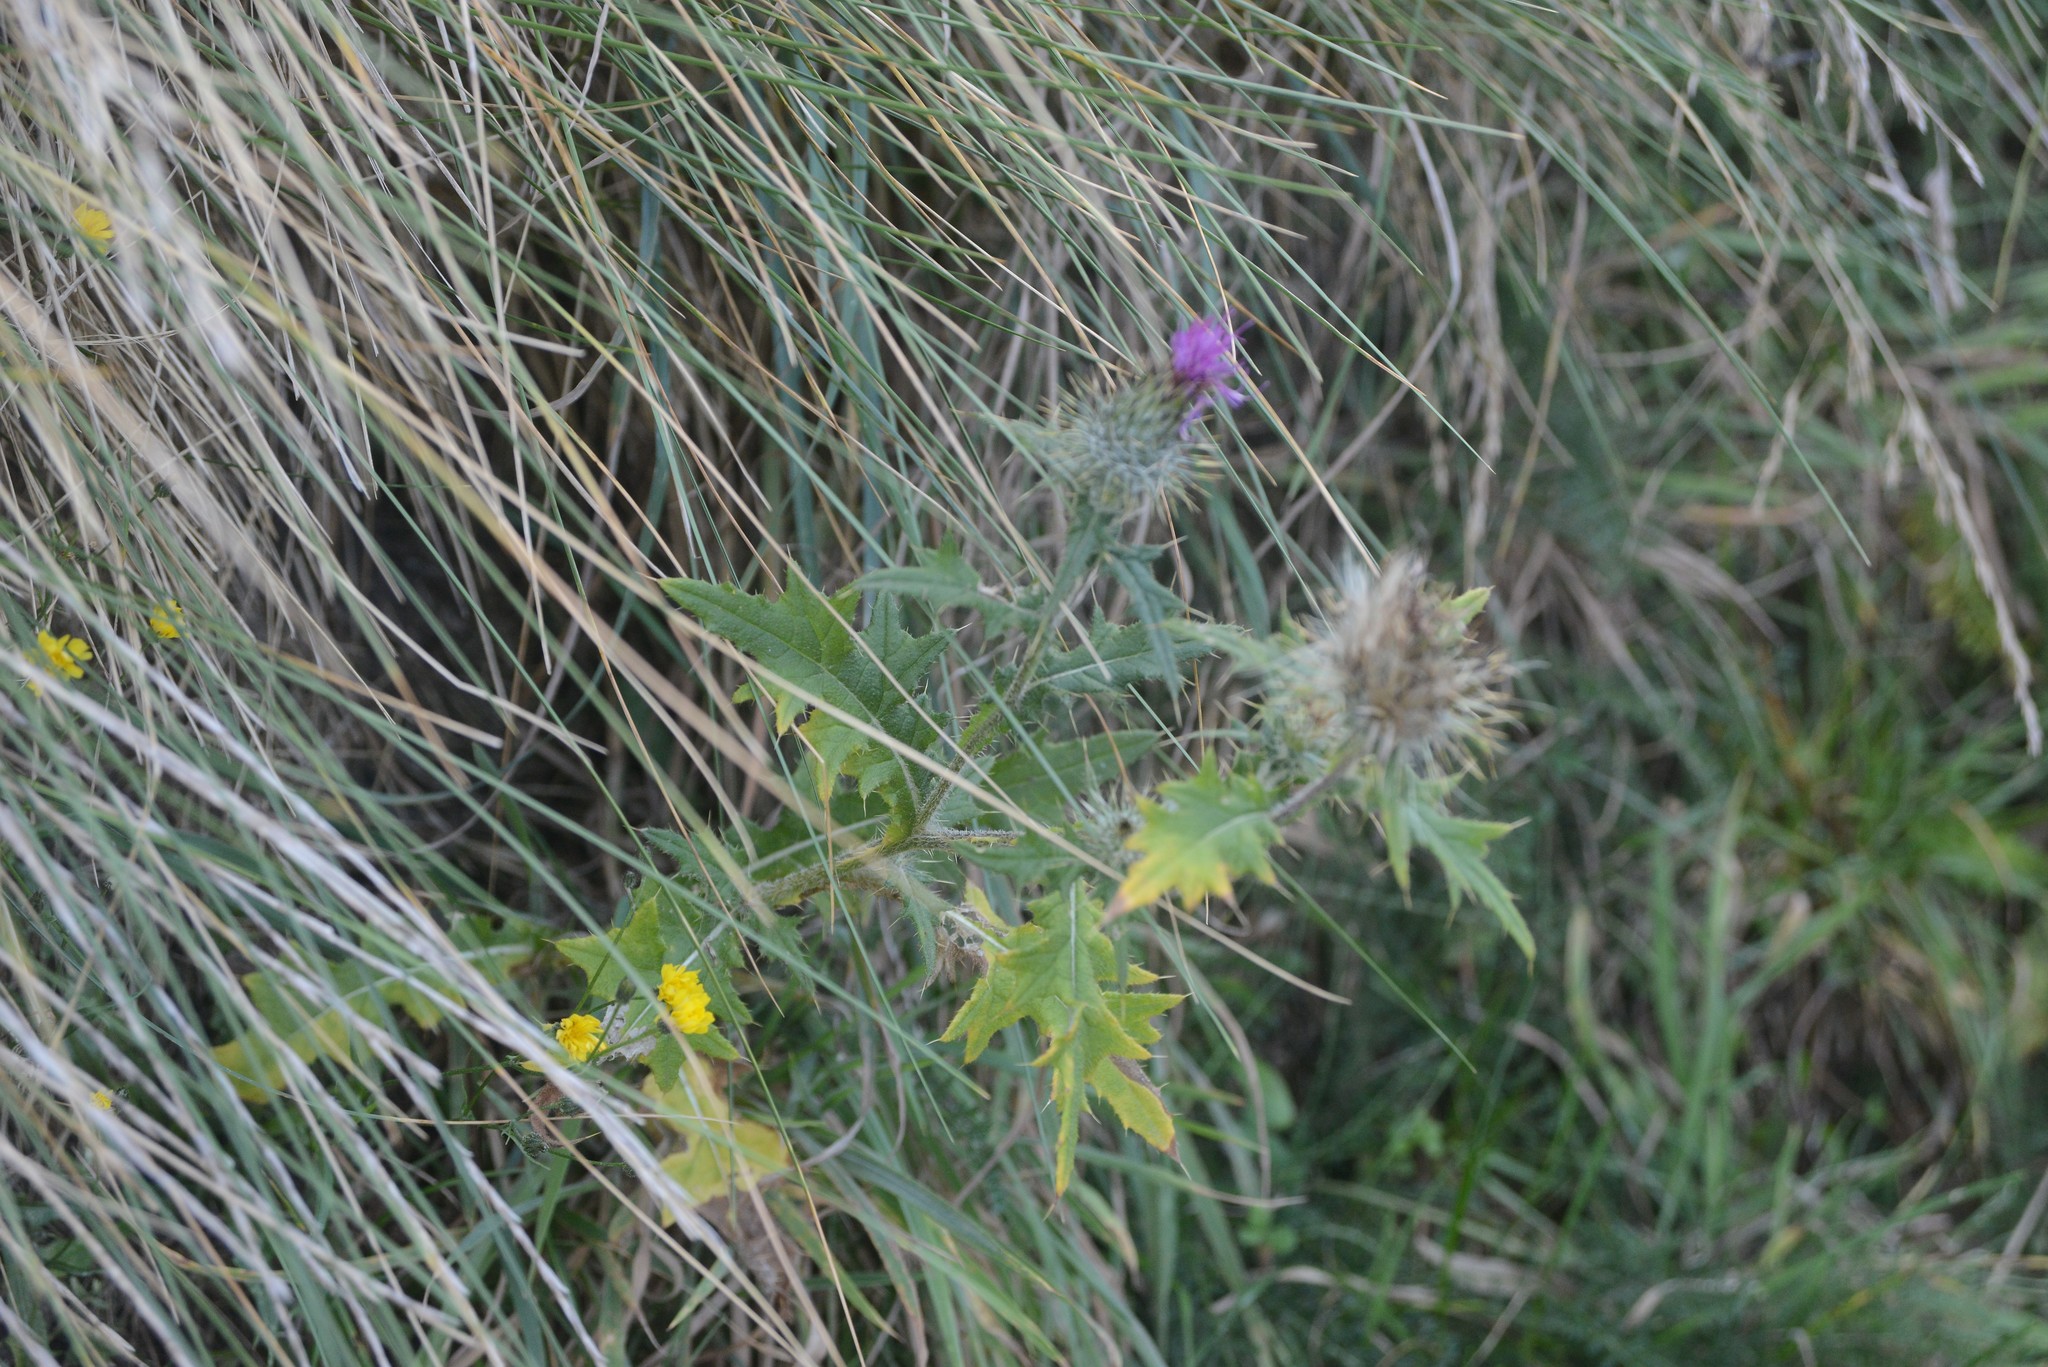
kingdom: Plantae
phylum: Tracheophyta
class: Magnoliopsida
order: Asterales
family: Asteraceae
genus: Cirsium
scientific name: Cirsium vulgare
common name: Bull thistle
